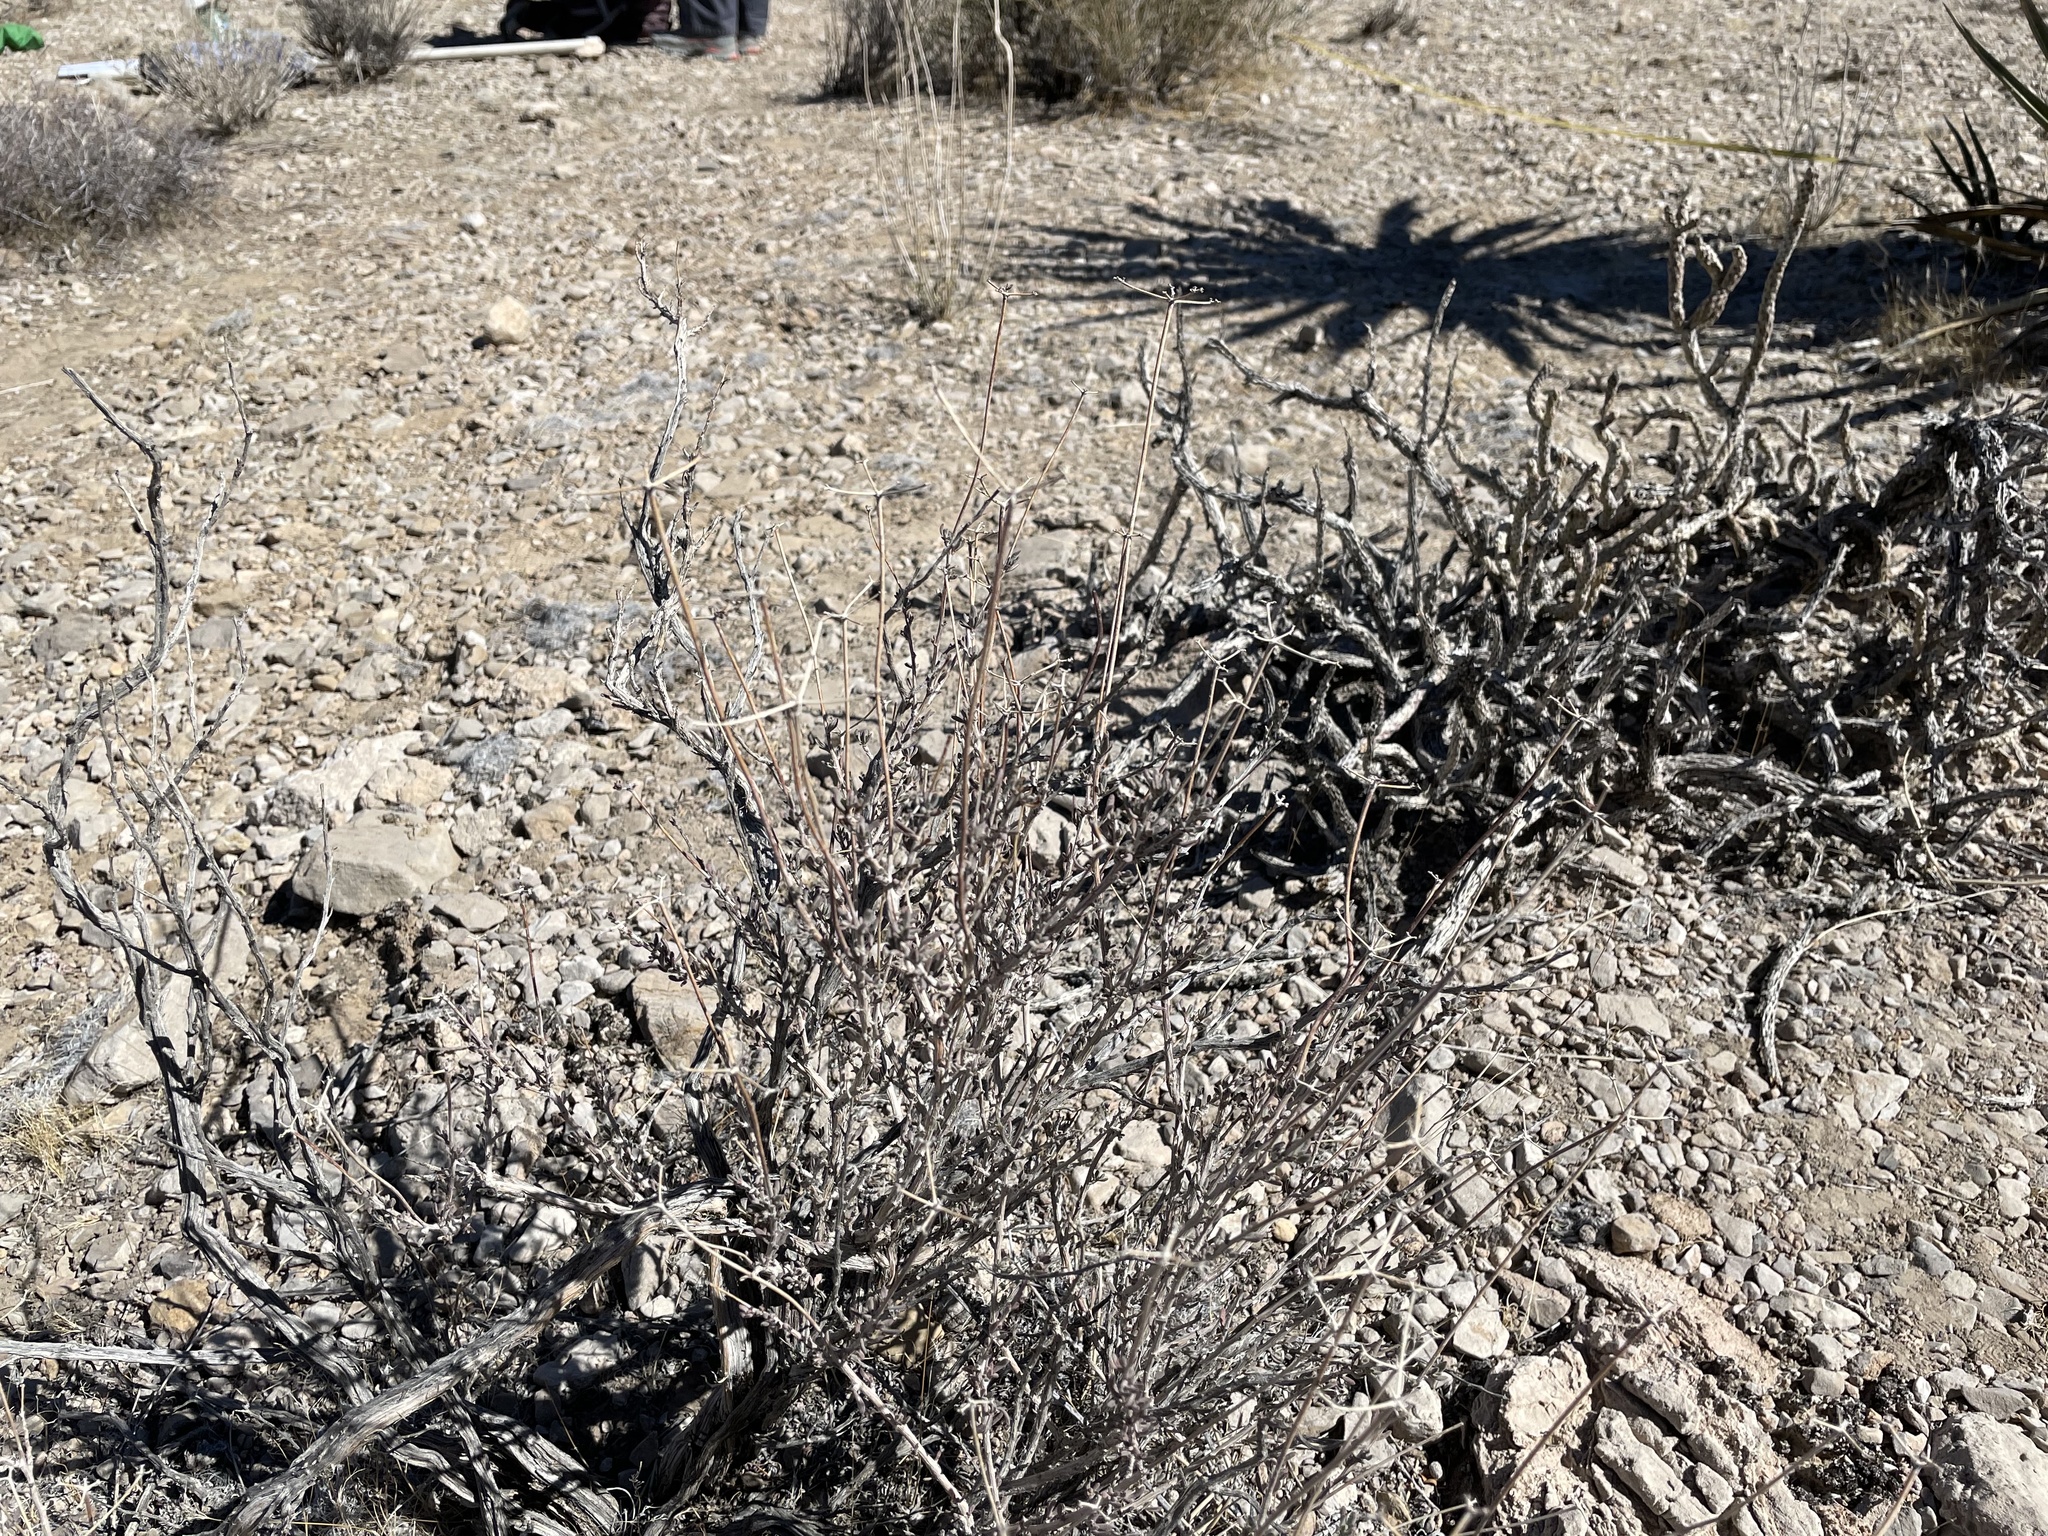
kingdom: Plantae
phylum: Tracheophyta
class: Magnoliopsida
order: Caryophyllales
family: Polygonaceae
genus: Eriogonum
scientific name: Eriogonum fasciculatum
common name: California wild buckwheat
